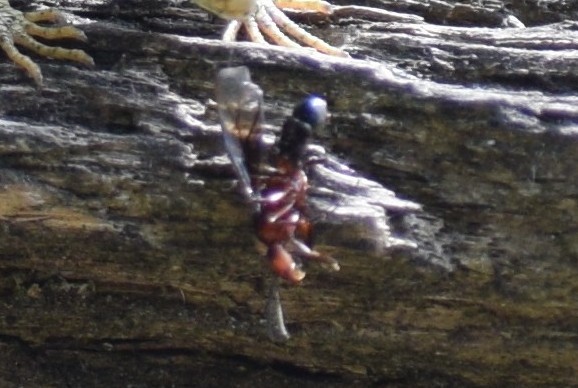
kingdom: Animalia
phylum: Arthropoda
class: Insecta
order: Hymenoptera
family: Formicidae
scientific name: Formicidae
